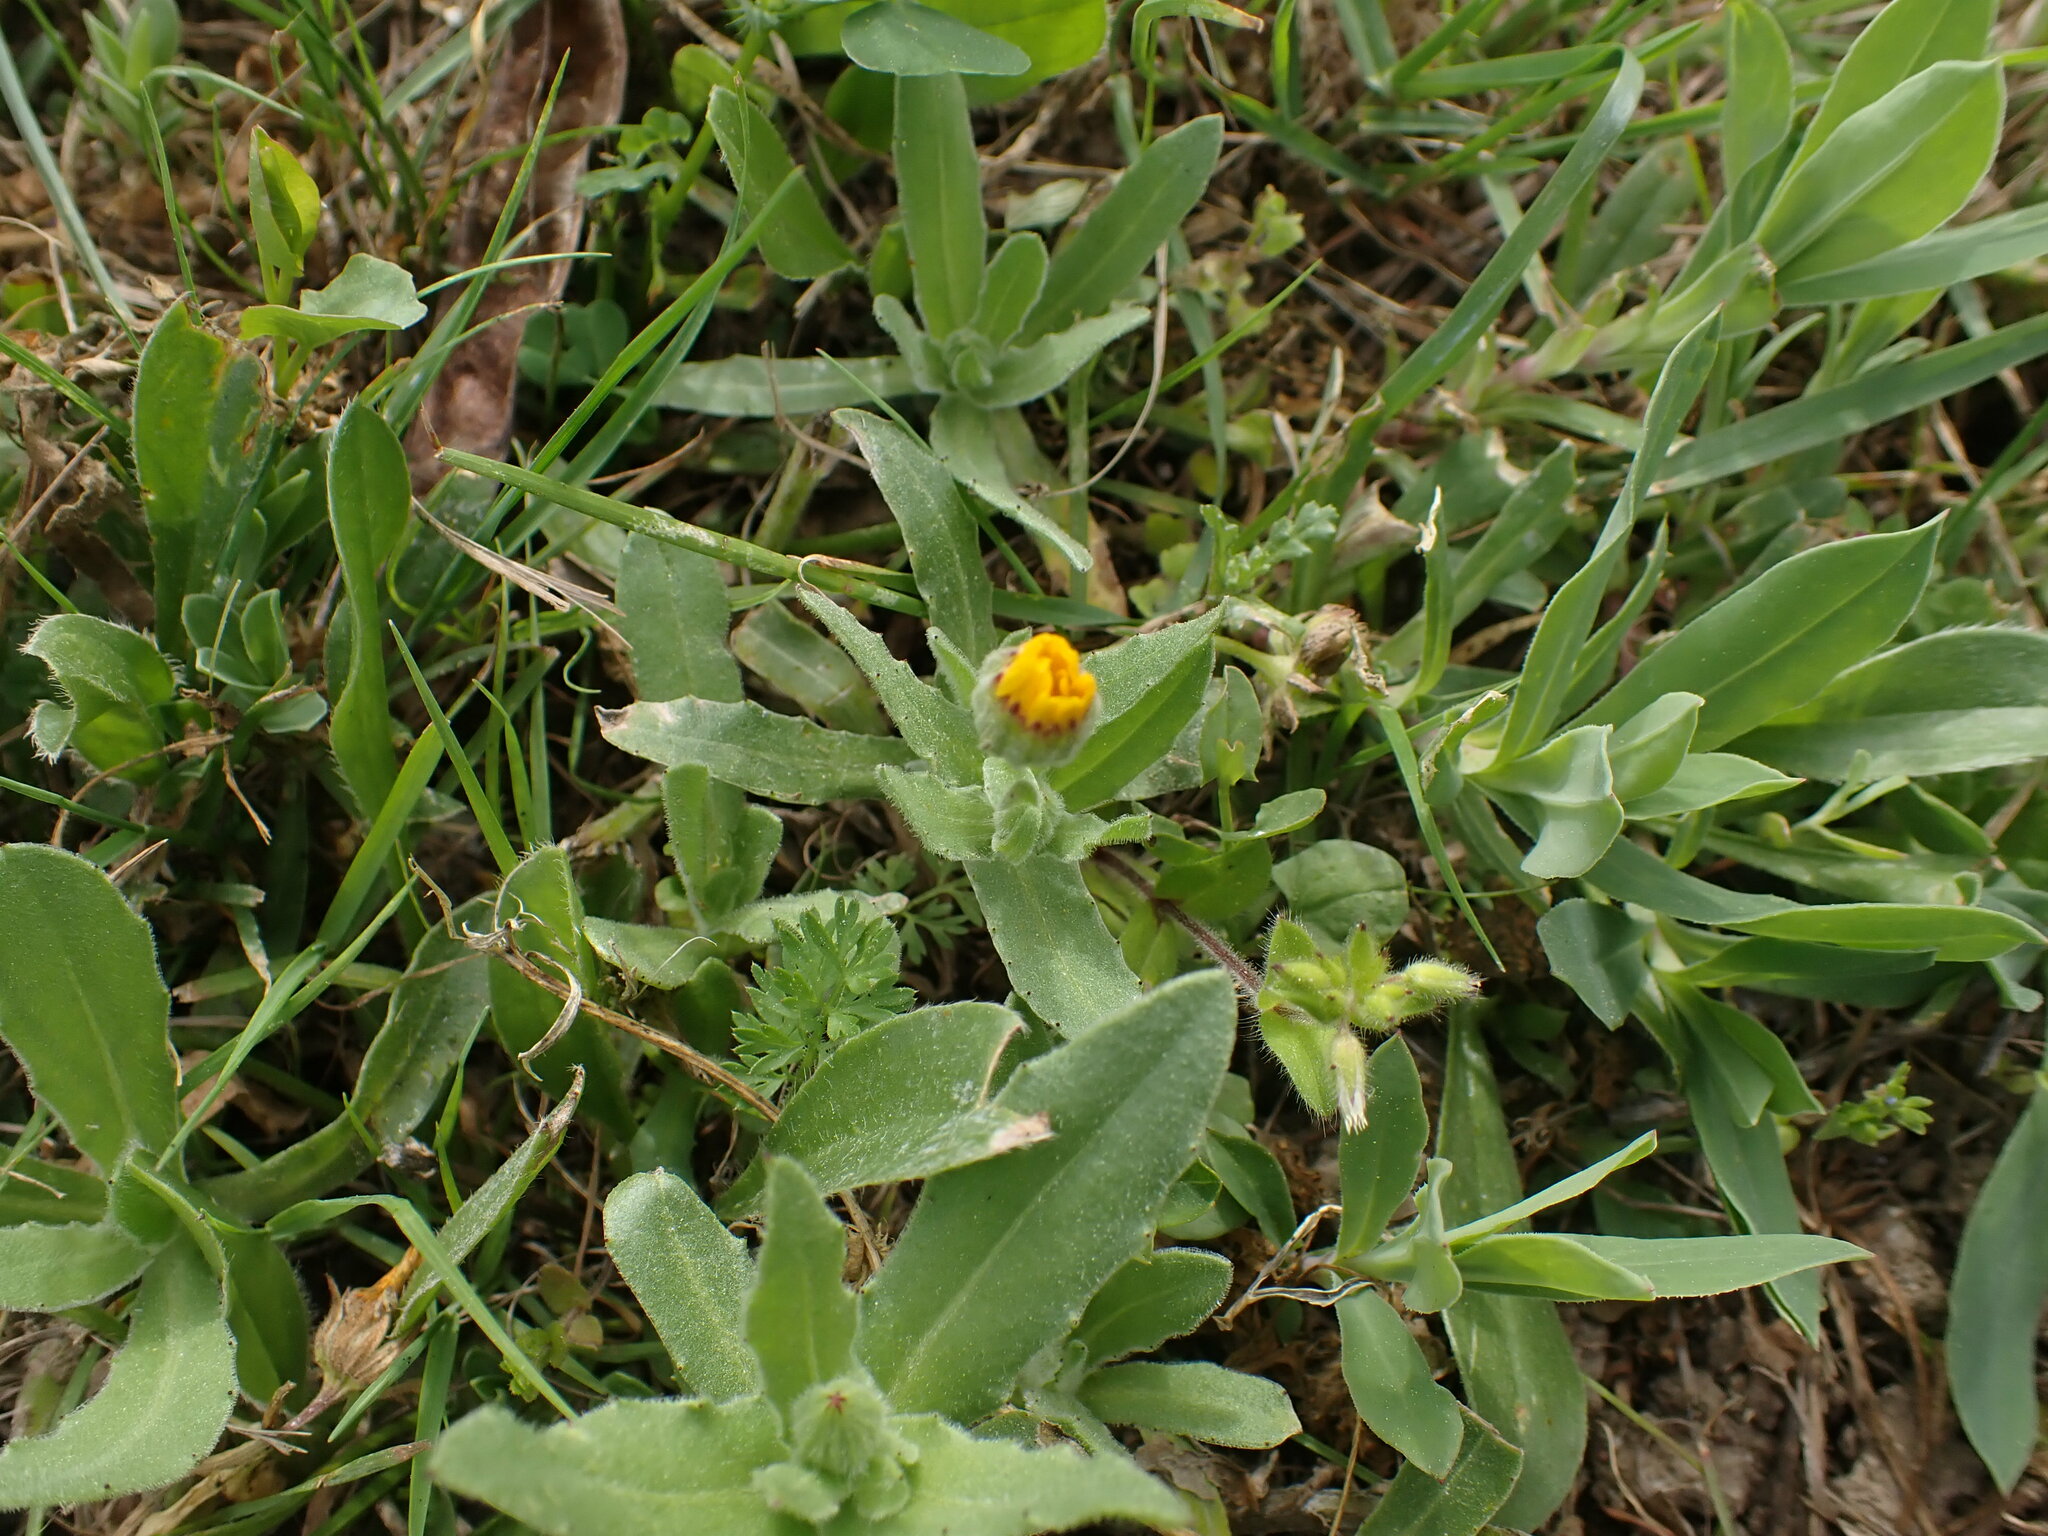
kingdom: Plantae
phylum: Tracheophyta
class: Magnoliopsida
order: Asterales
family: Asteraceae
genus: Calendula
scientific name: Calendula arvensis
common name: Field marigold
